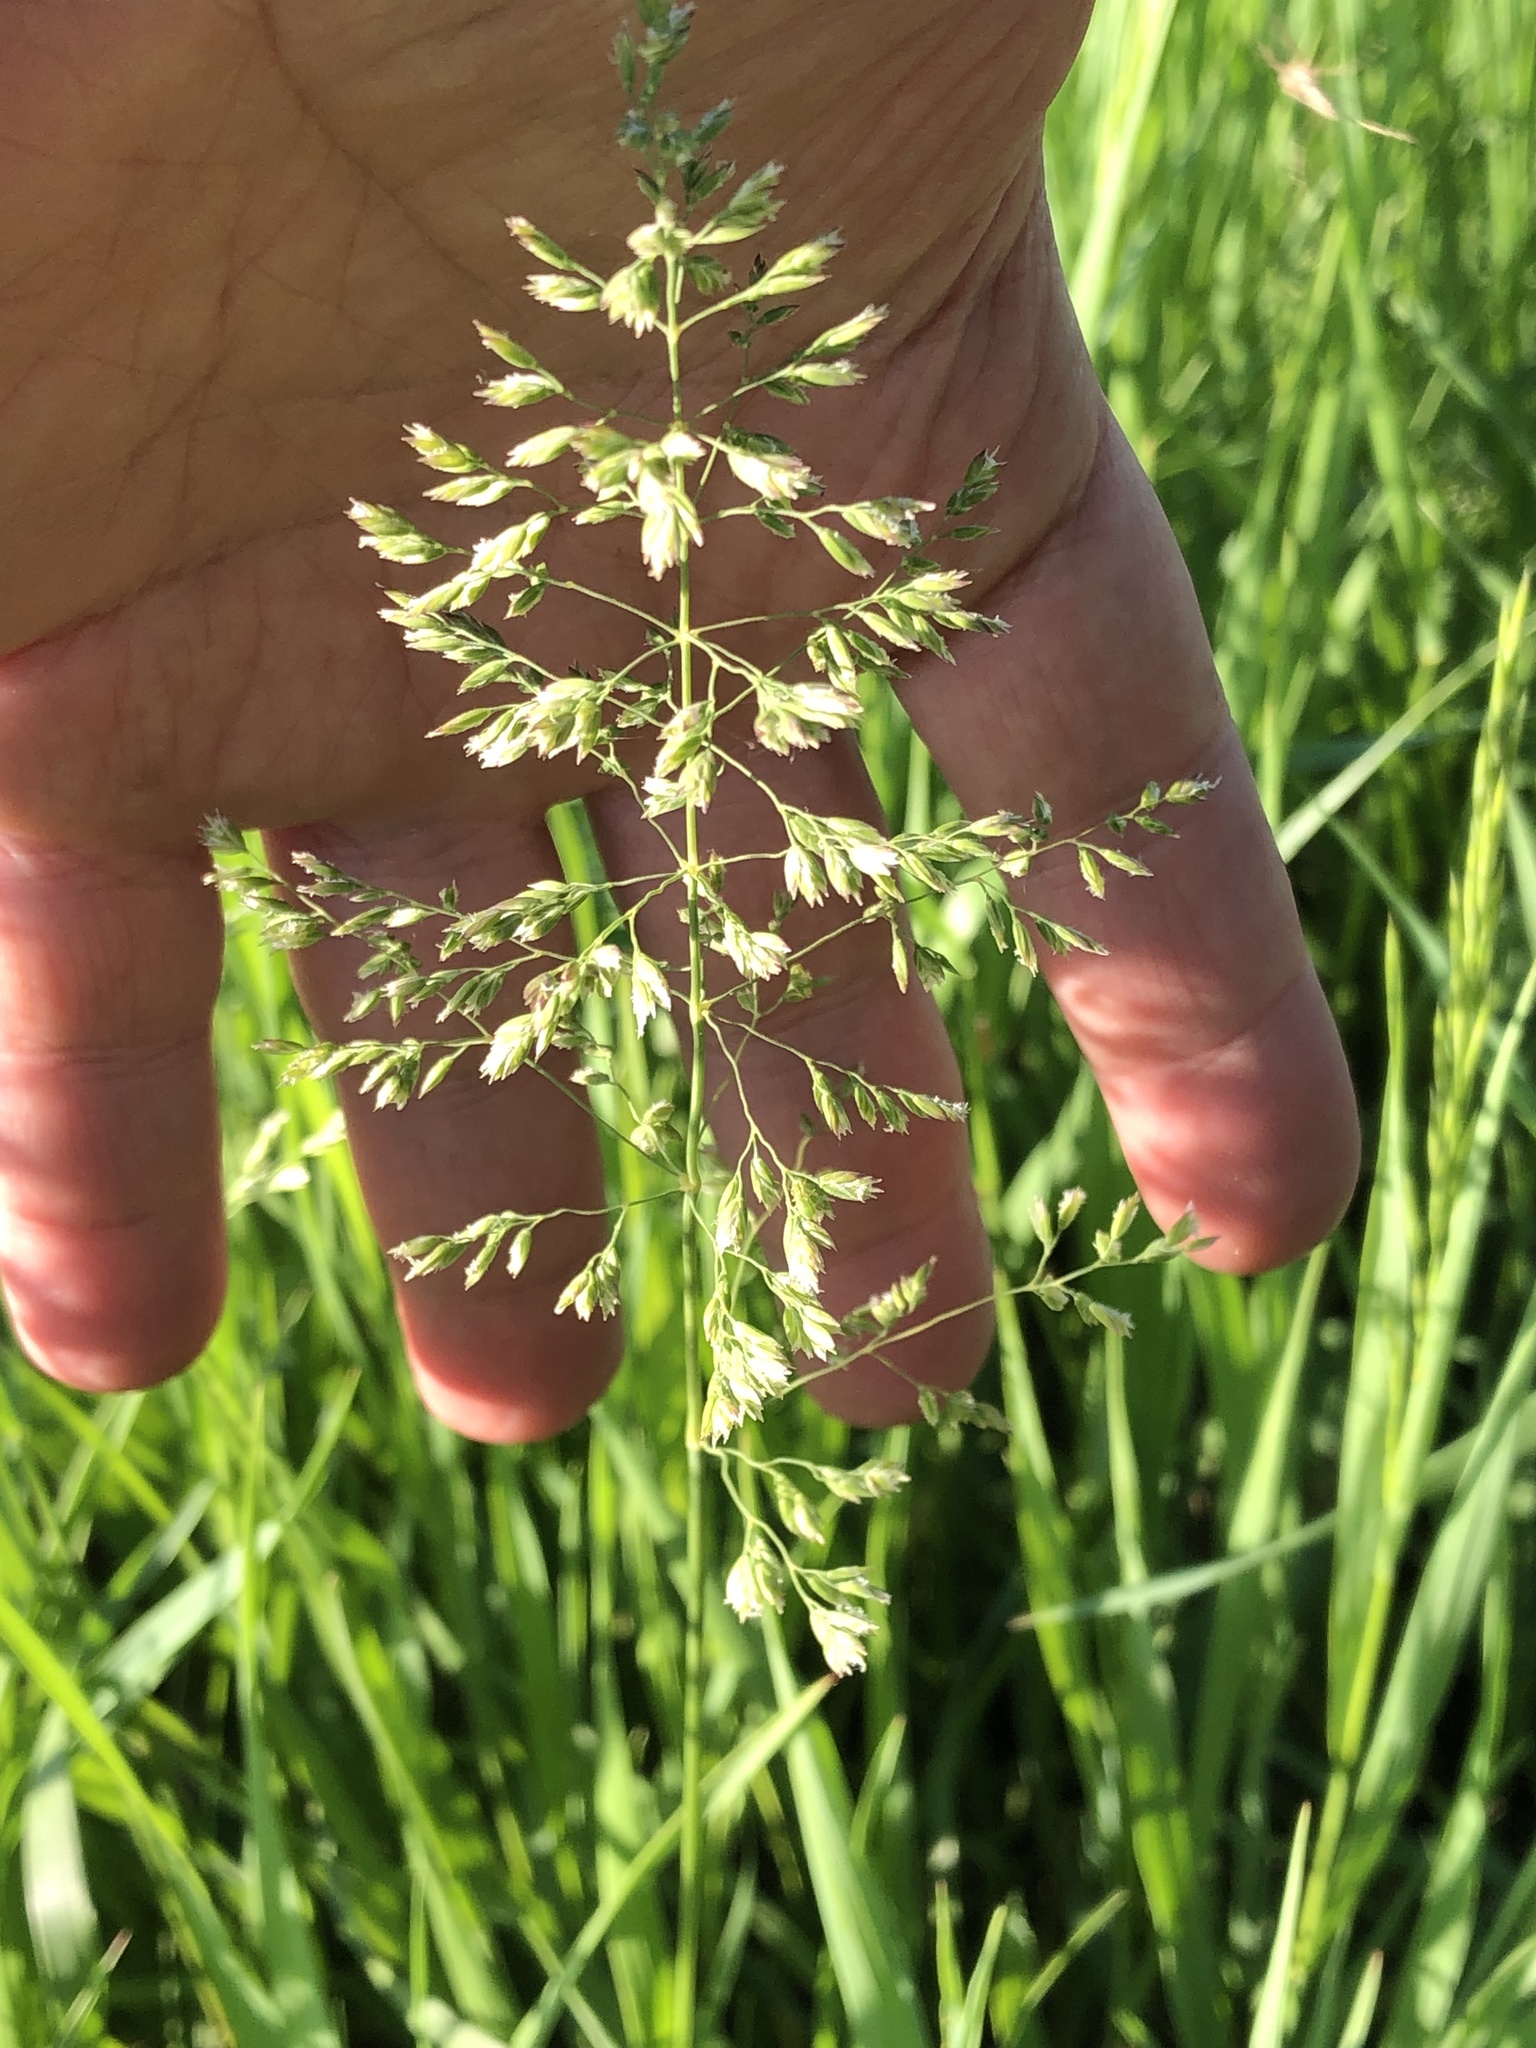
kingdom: Plantae
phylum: Tracheophyta
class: Liliopsida
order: Poales
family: Poaceae
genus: Poa
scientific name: Poa pratensis
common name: Kentucky bluegrass
